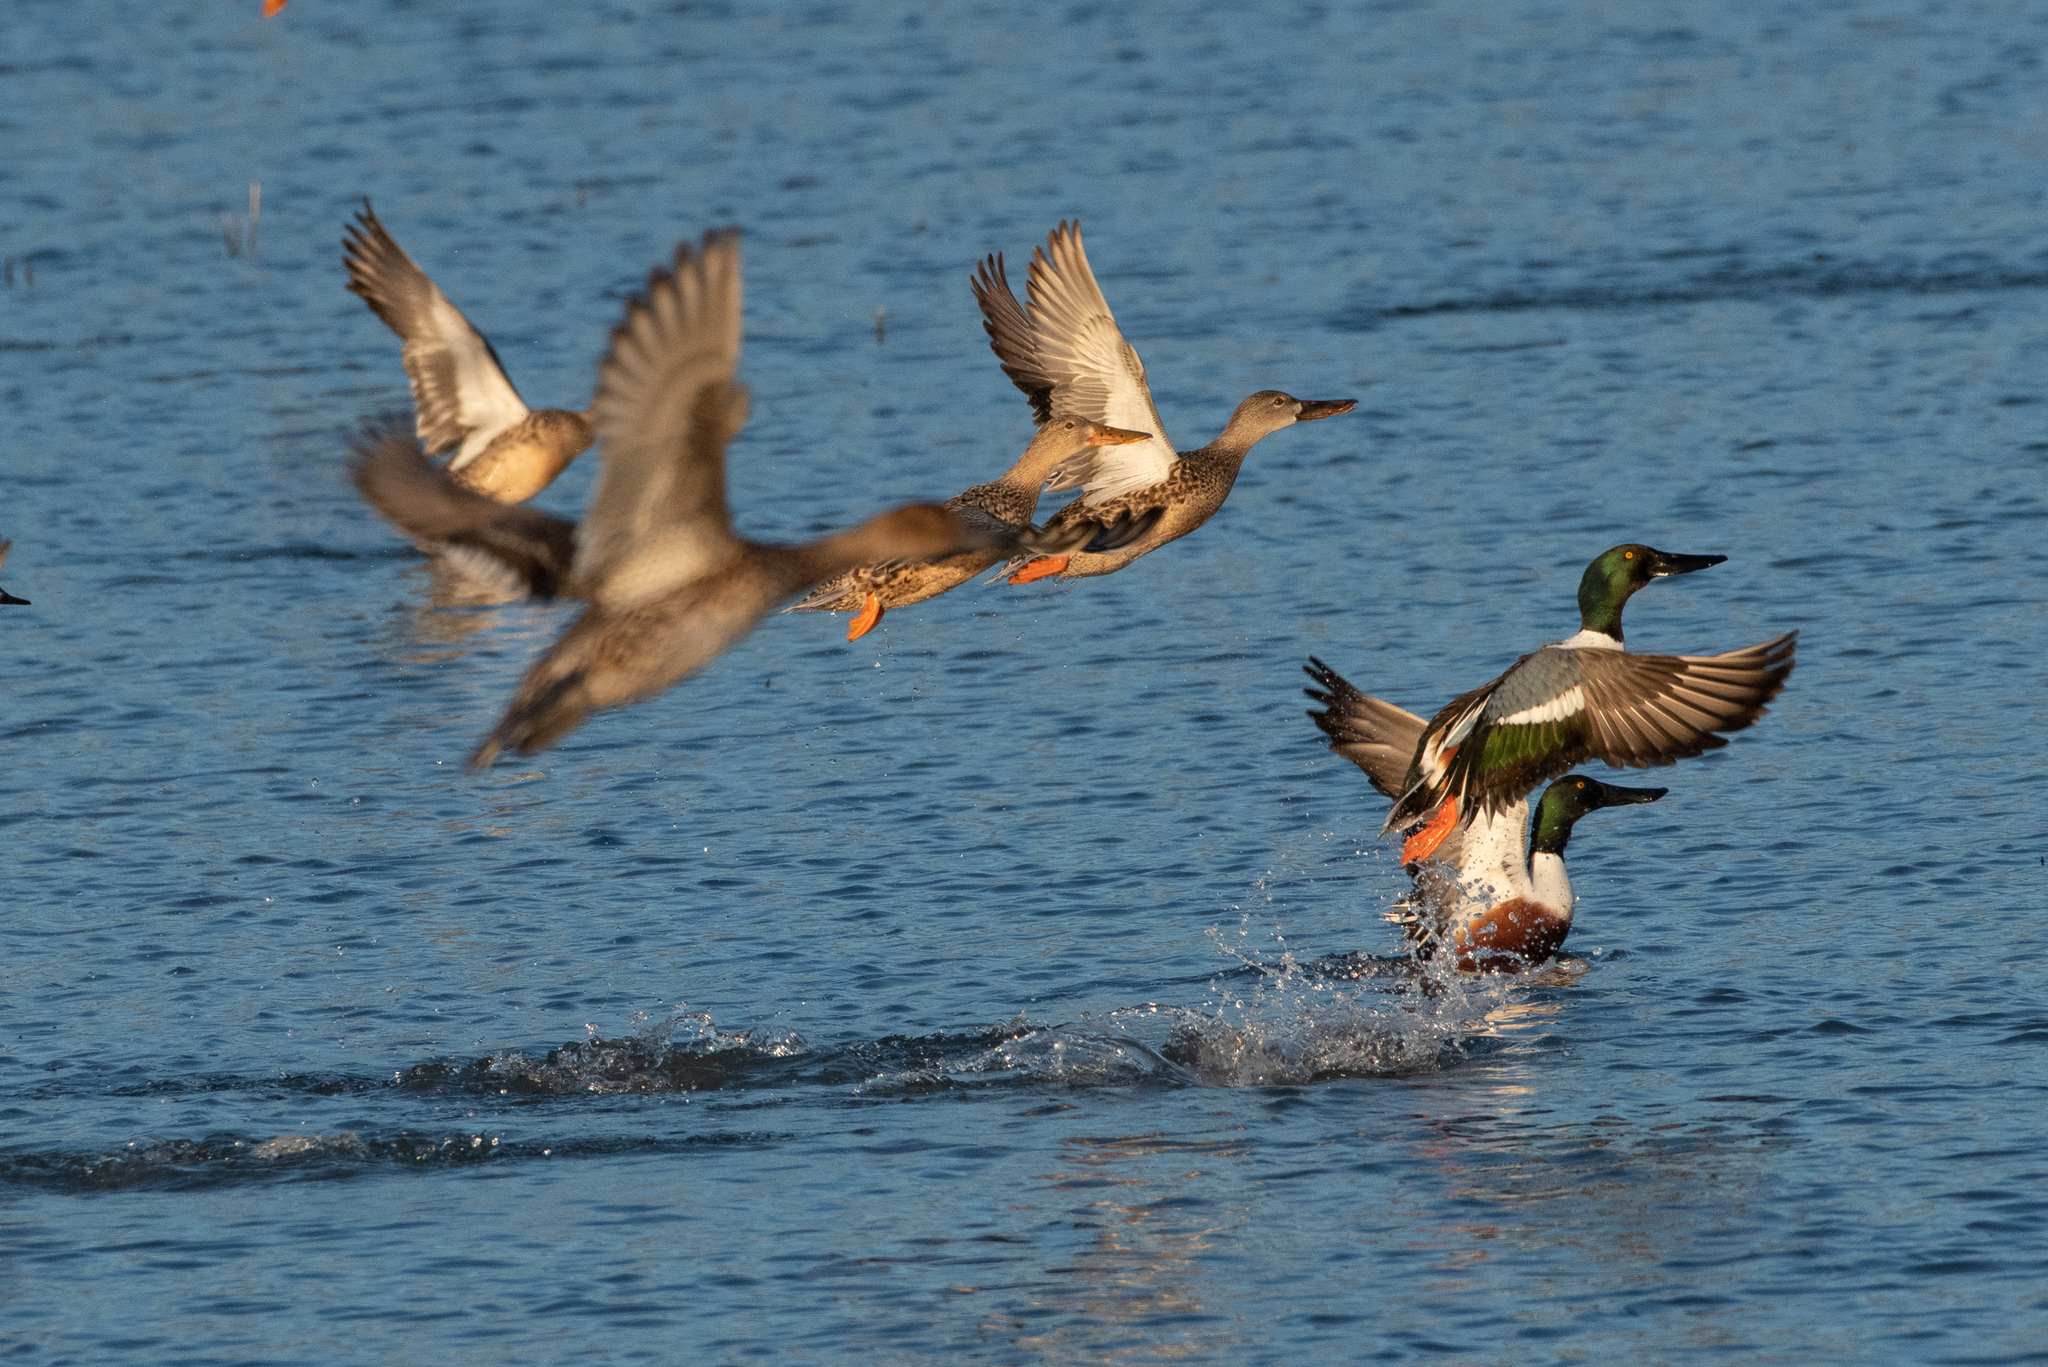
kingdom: Animalia
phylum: Chordata
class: Aves
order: Anseriformes
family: Anatidae
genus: Spatula
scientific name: Spatula clypeata
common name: Northern shoveler
